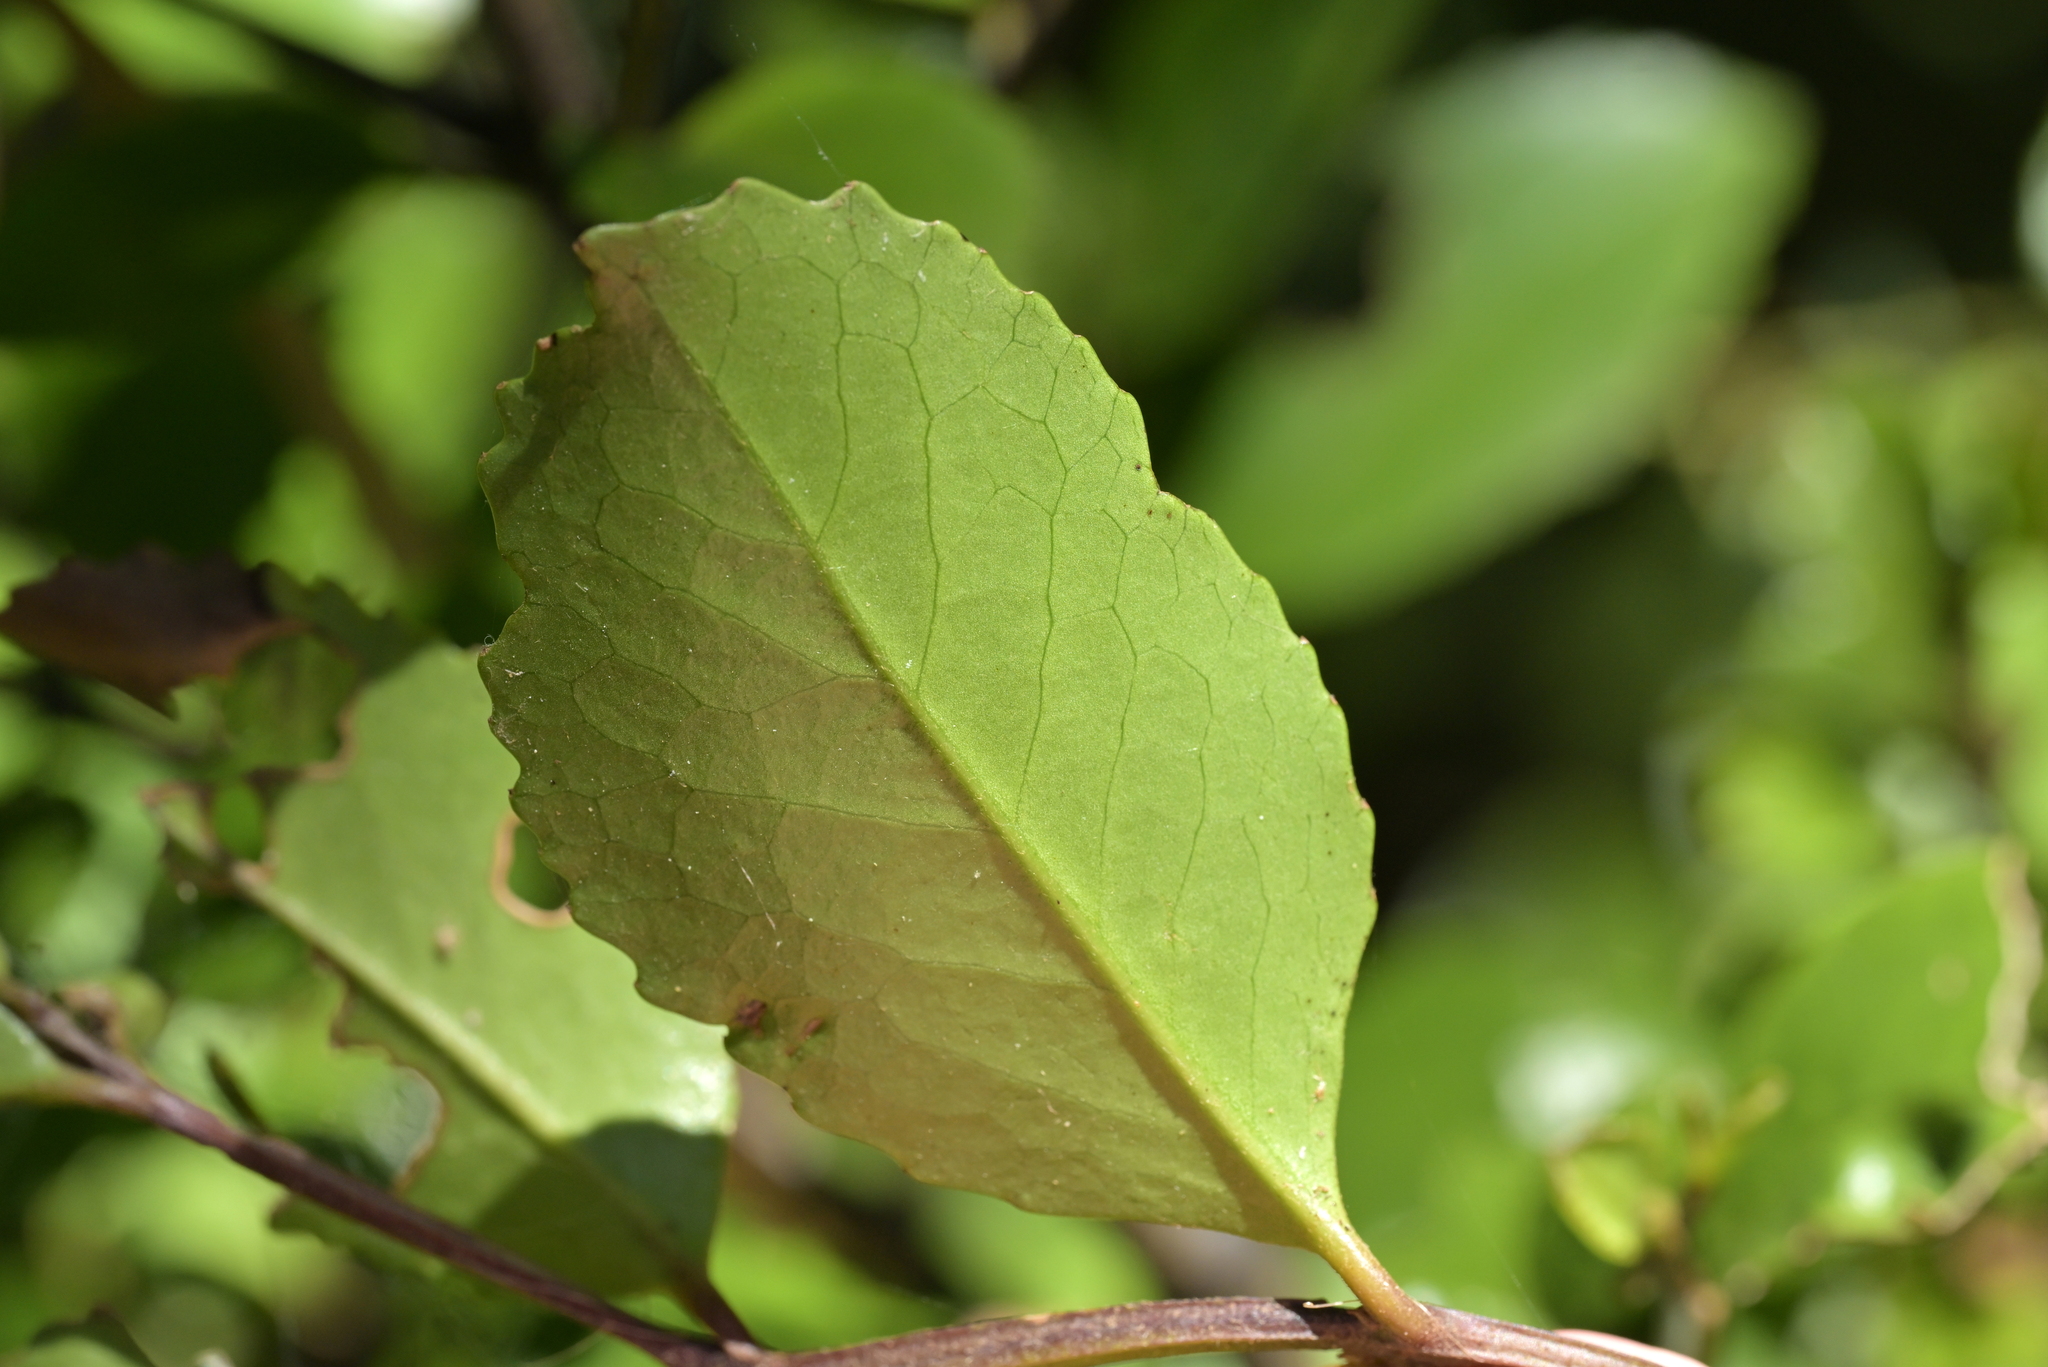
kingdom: Plantae
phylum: Tracheophyta
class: Magnoliopsida
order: Laurales
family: Atherospermataceae
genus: Laurelia
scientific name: Laurelia novae-zelandiae
